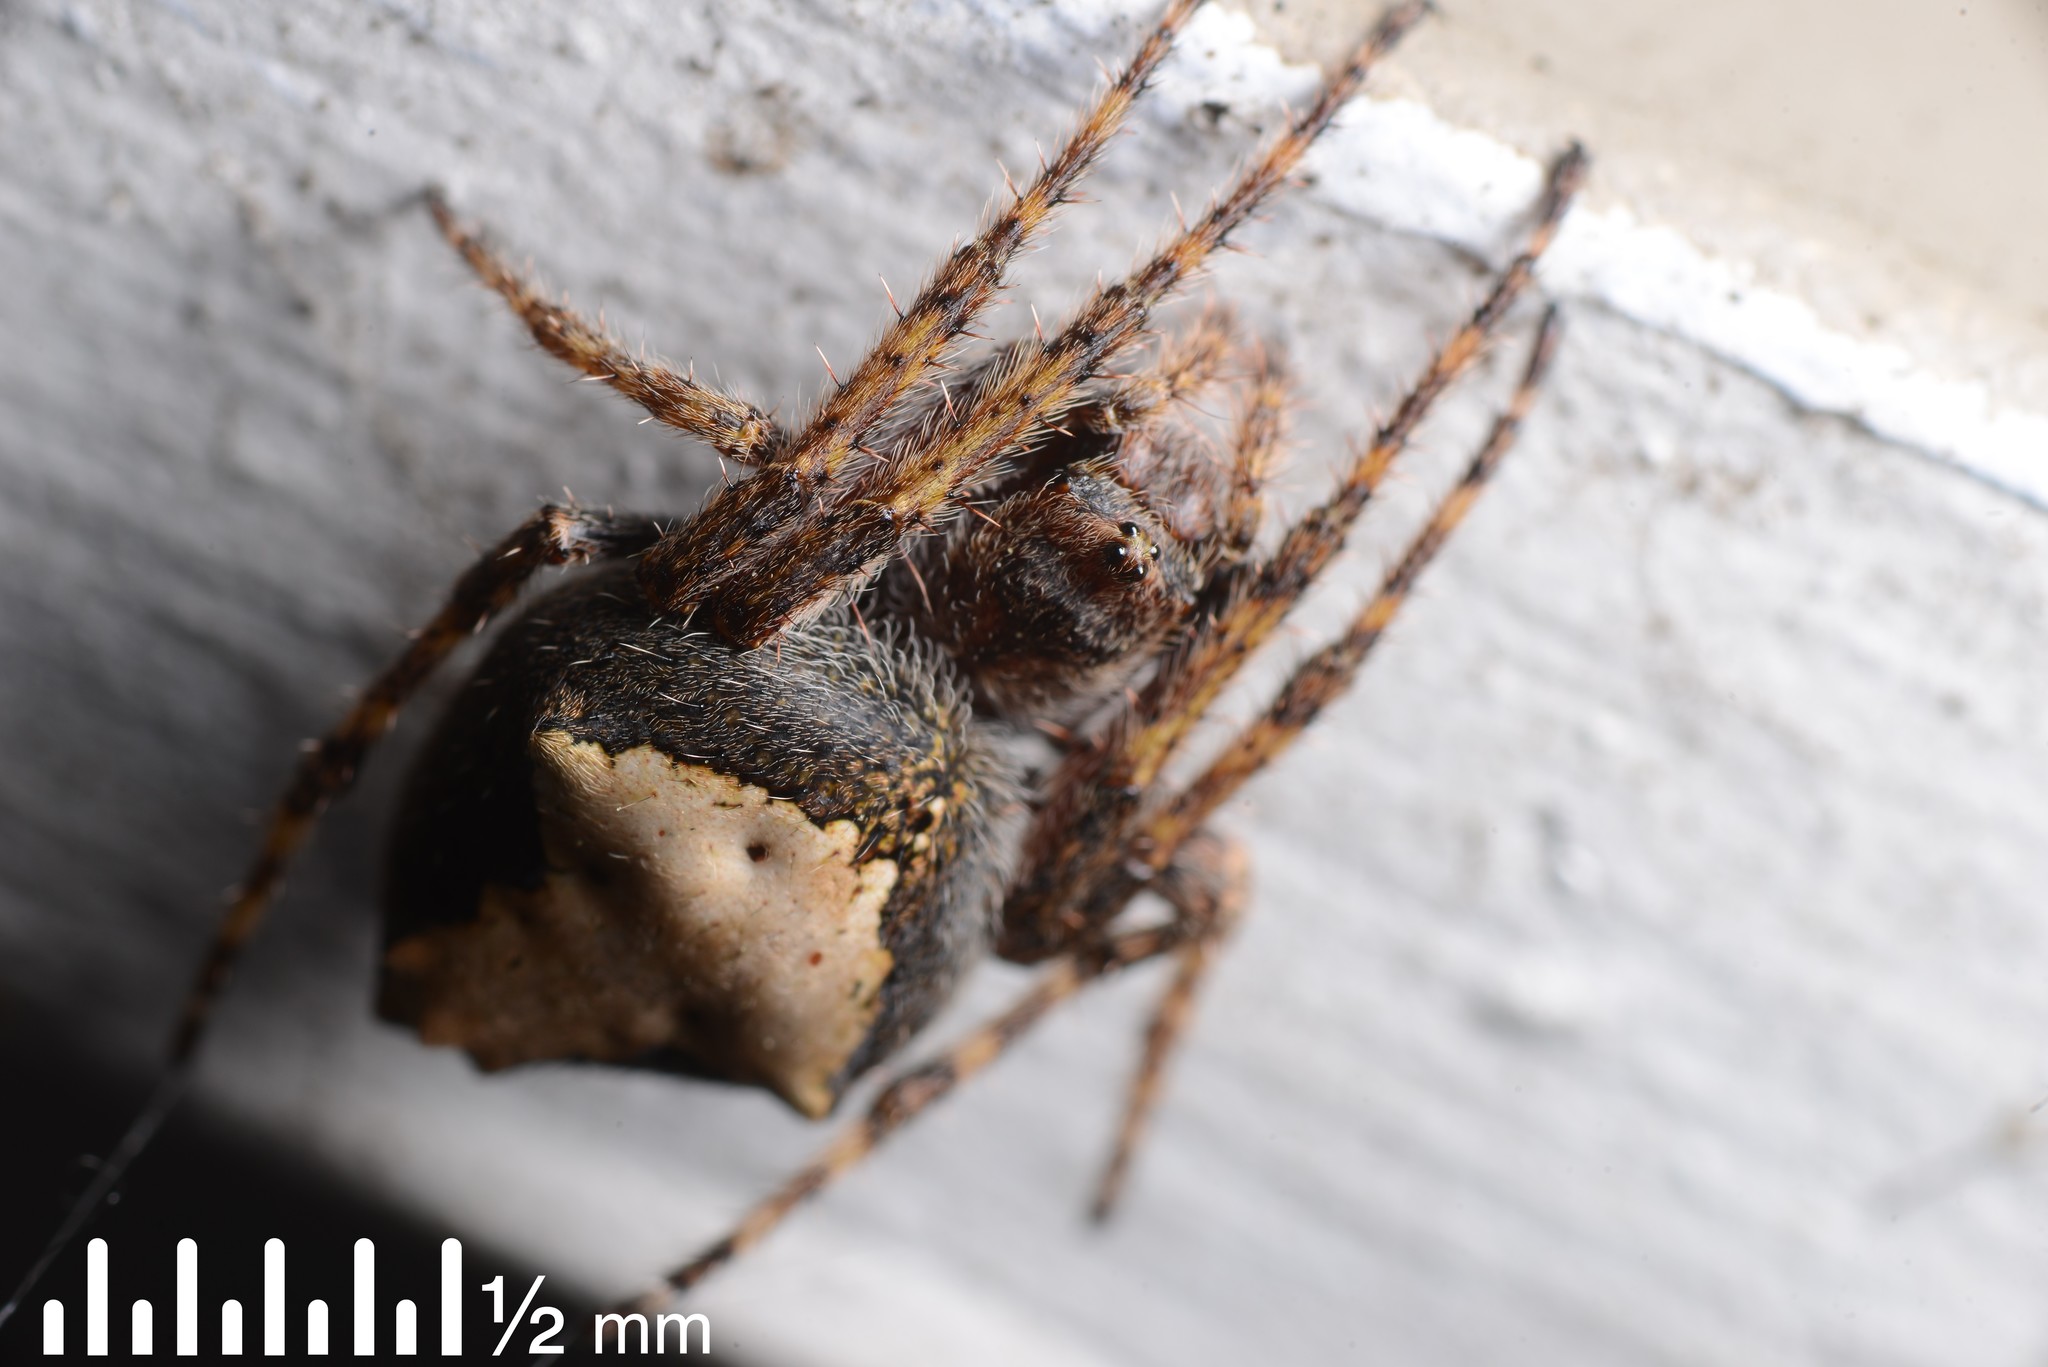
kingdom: Animalia
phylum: Arthropoda
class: Arachnida
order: Araneae
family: Araneidae
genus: Eriophora
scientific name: Eriophora pustulosa
